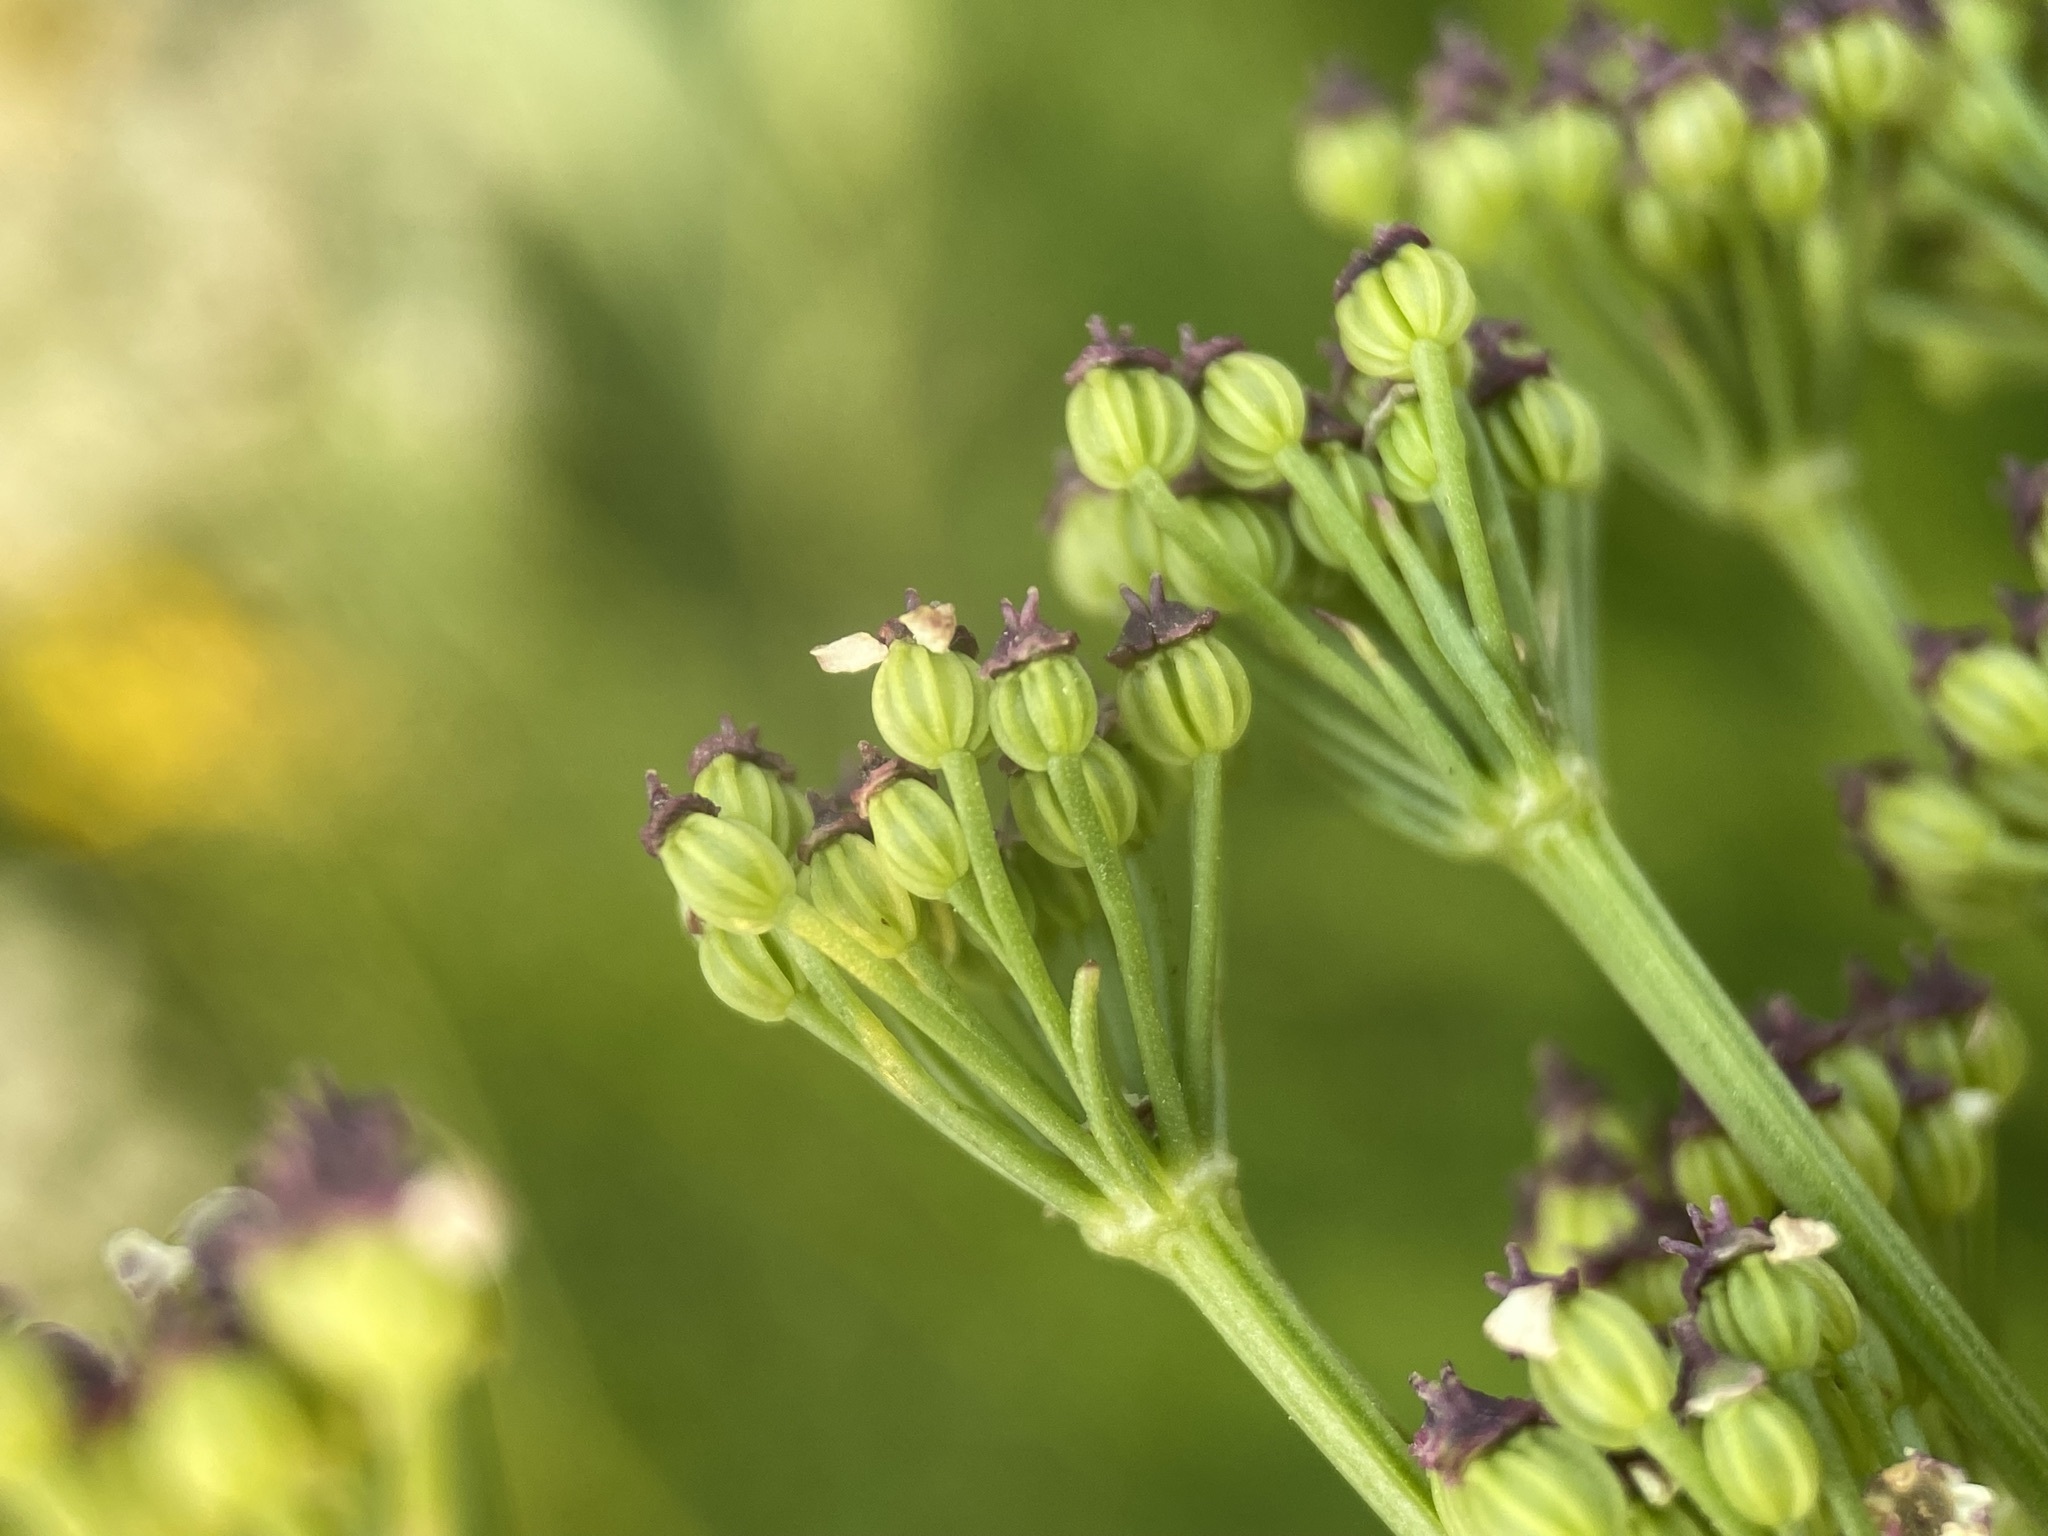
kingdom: Plantae
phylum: Tracheophyta
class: Magnoliopsida
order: Apiales
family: Apiaceae
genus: Ligusticum
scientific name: Ligusticum grayi
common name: Gray's licorice-root
